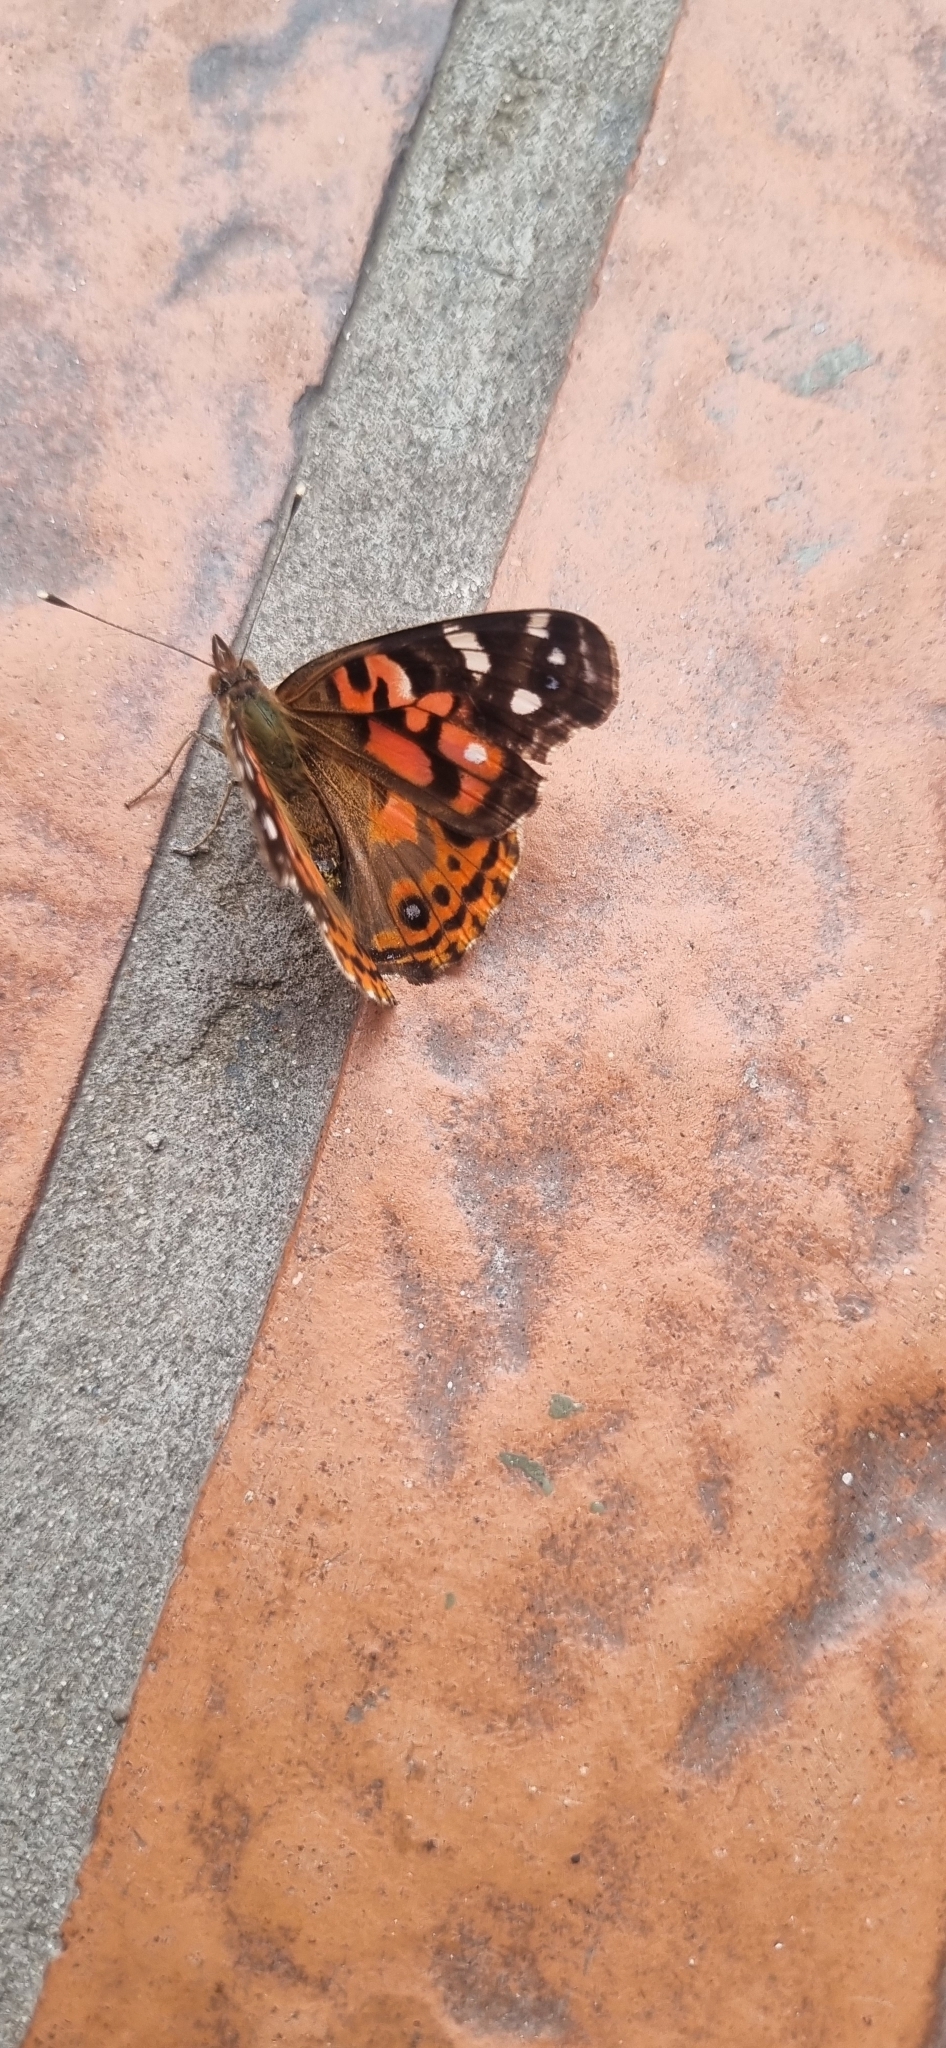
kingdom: Animalia
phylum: Arthropoda
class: Insecta
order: Lepidoptera
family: Nymphalidae
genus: Vanessa
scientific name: Vanessa braziliensis
